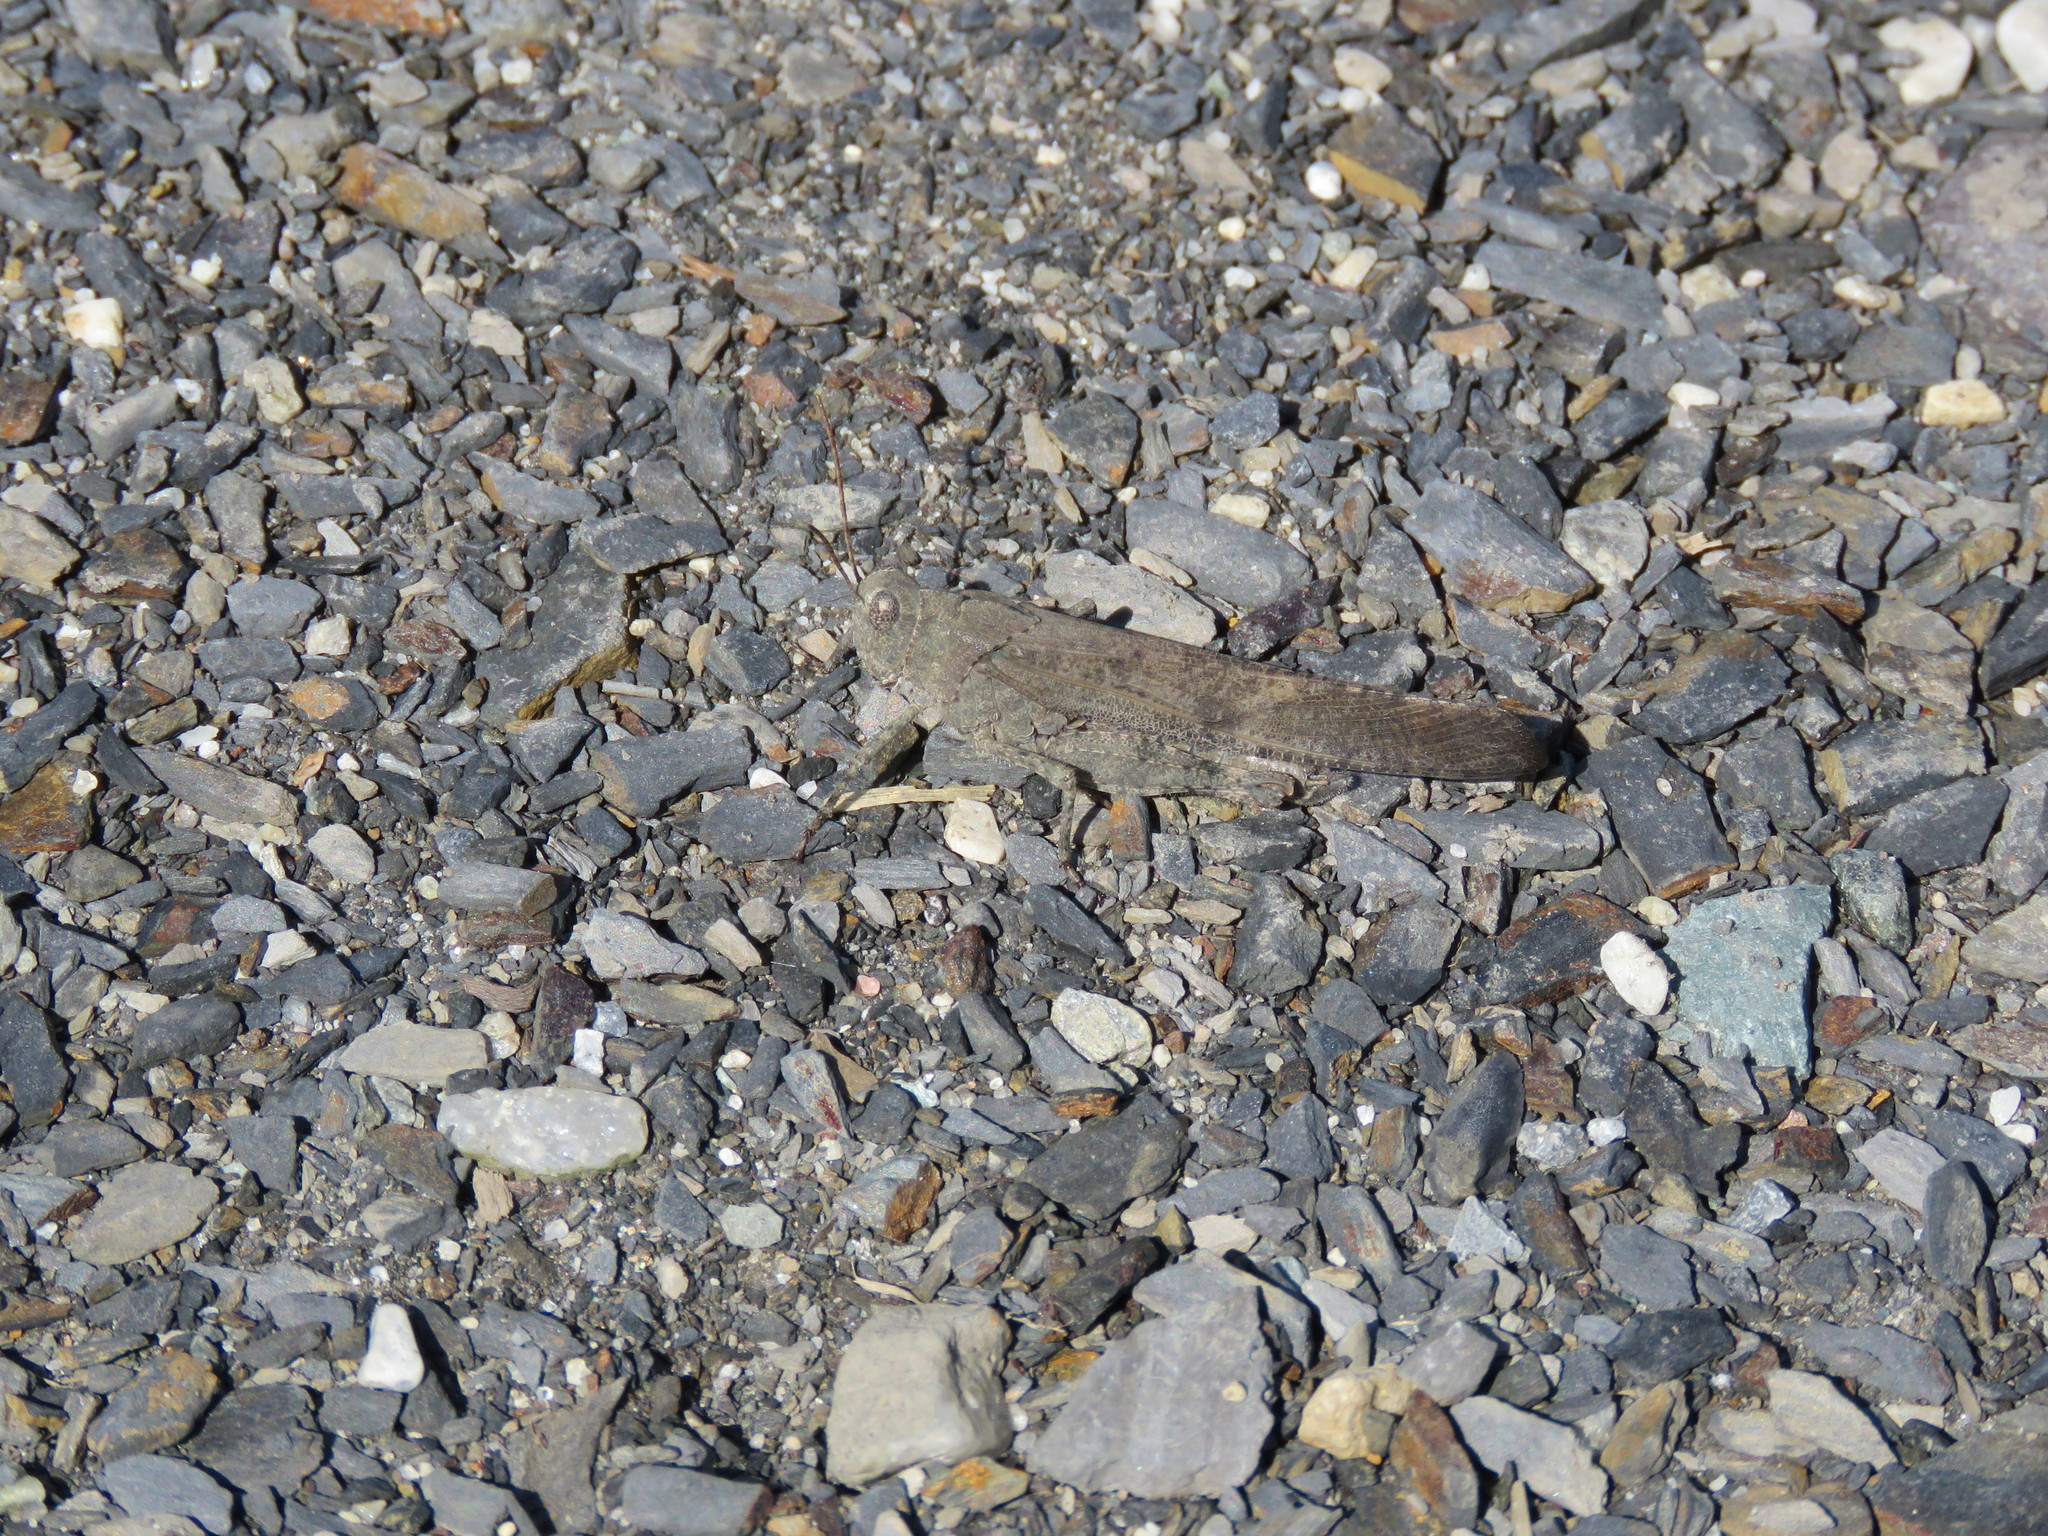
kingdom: Animalia
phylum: Arthropoda
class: Insecta
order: Orthoptera
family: Acrididae
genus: Dissosteira
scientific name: Dissosteira carolina
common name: Carolina grasshopper
